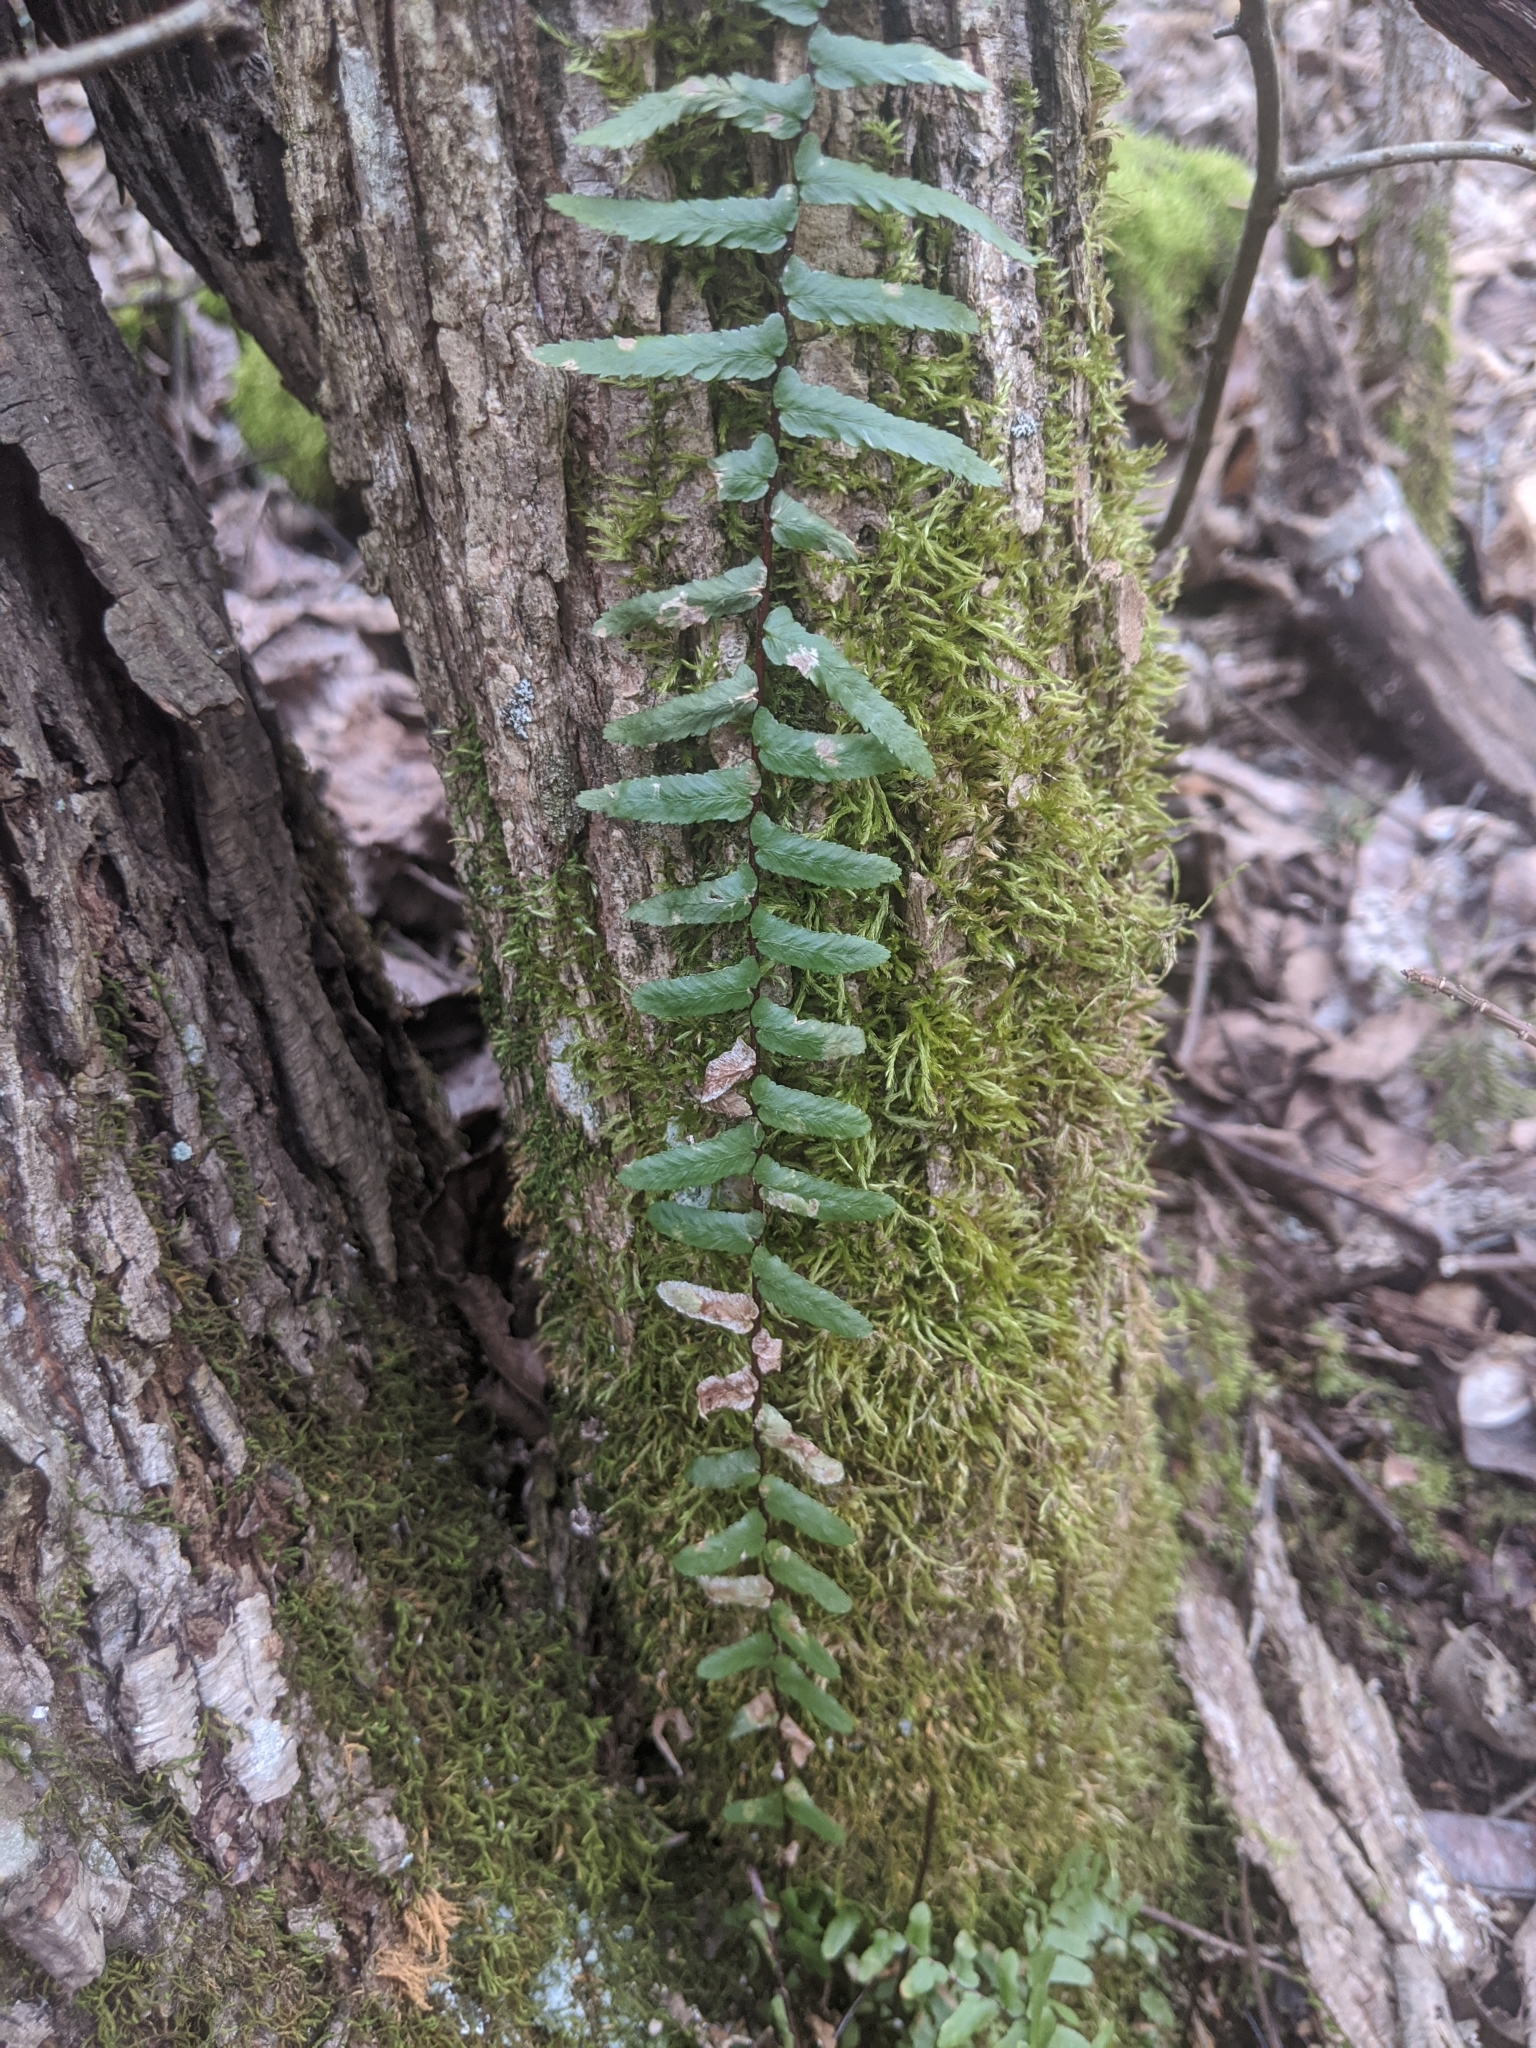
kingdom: Plantae
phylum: Tracheophyta
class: Polypodiopsida
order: Polypodiales
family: Aspleniaceae
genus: Asplenium
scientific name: Asplenium platyneuron
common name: Ebony spleenwort
